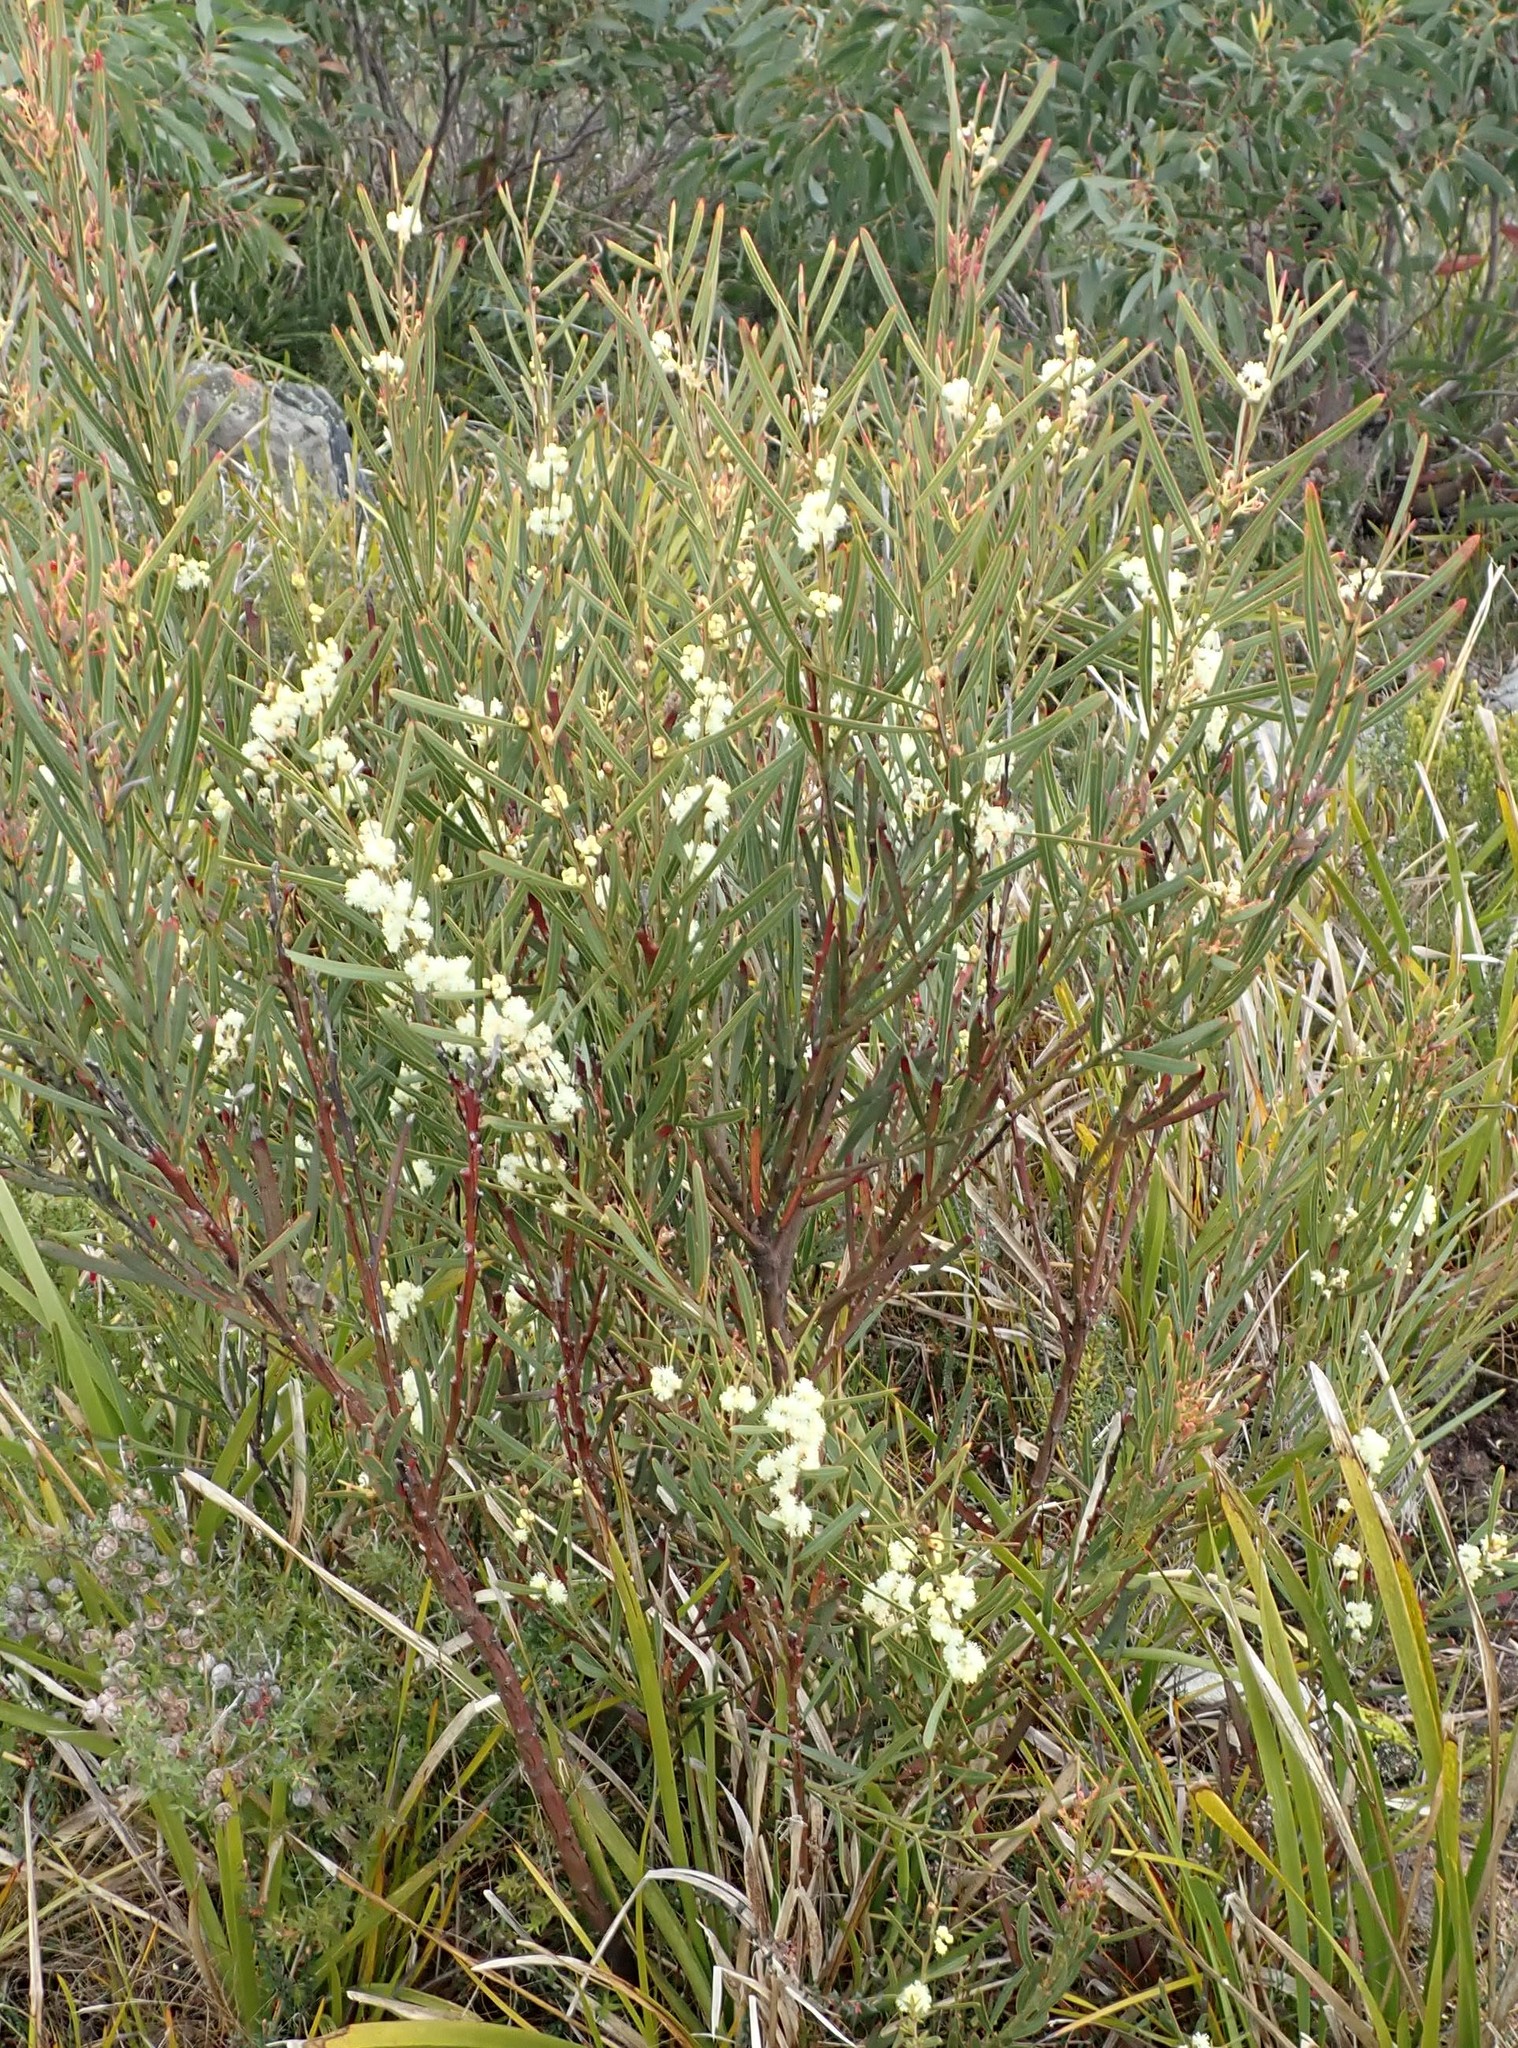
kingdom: Plantae
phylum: Tracheophyta
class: Magnoliopsida
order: Fabales
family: Fabaceae
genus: Acacia
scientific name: Acacia suaveolens
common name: Sweet acacia
